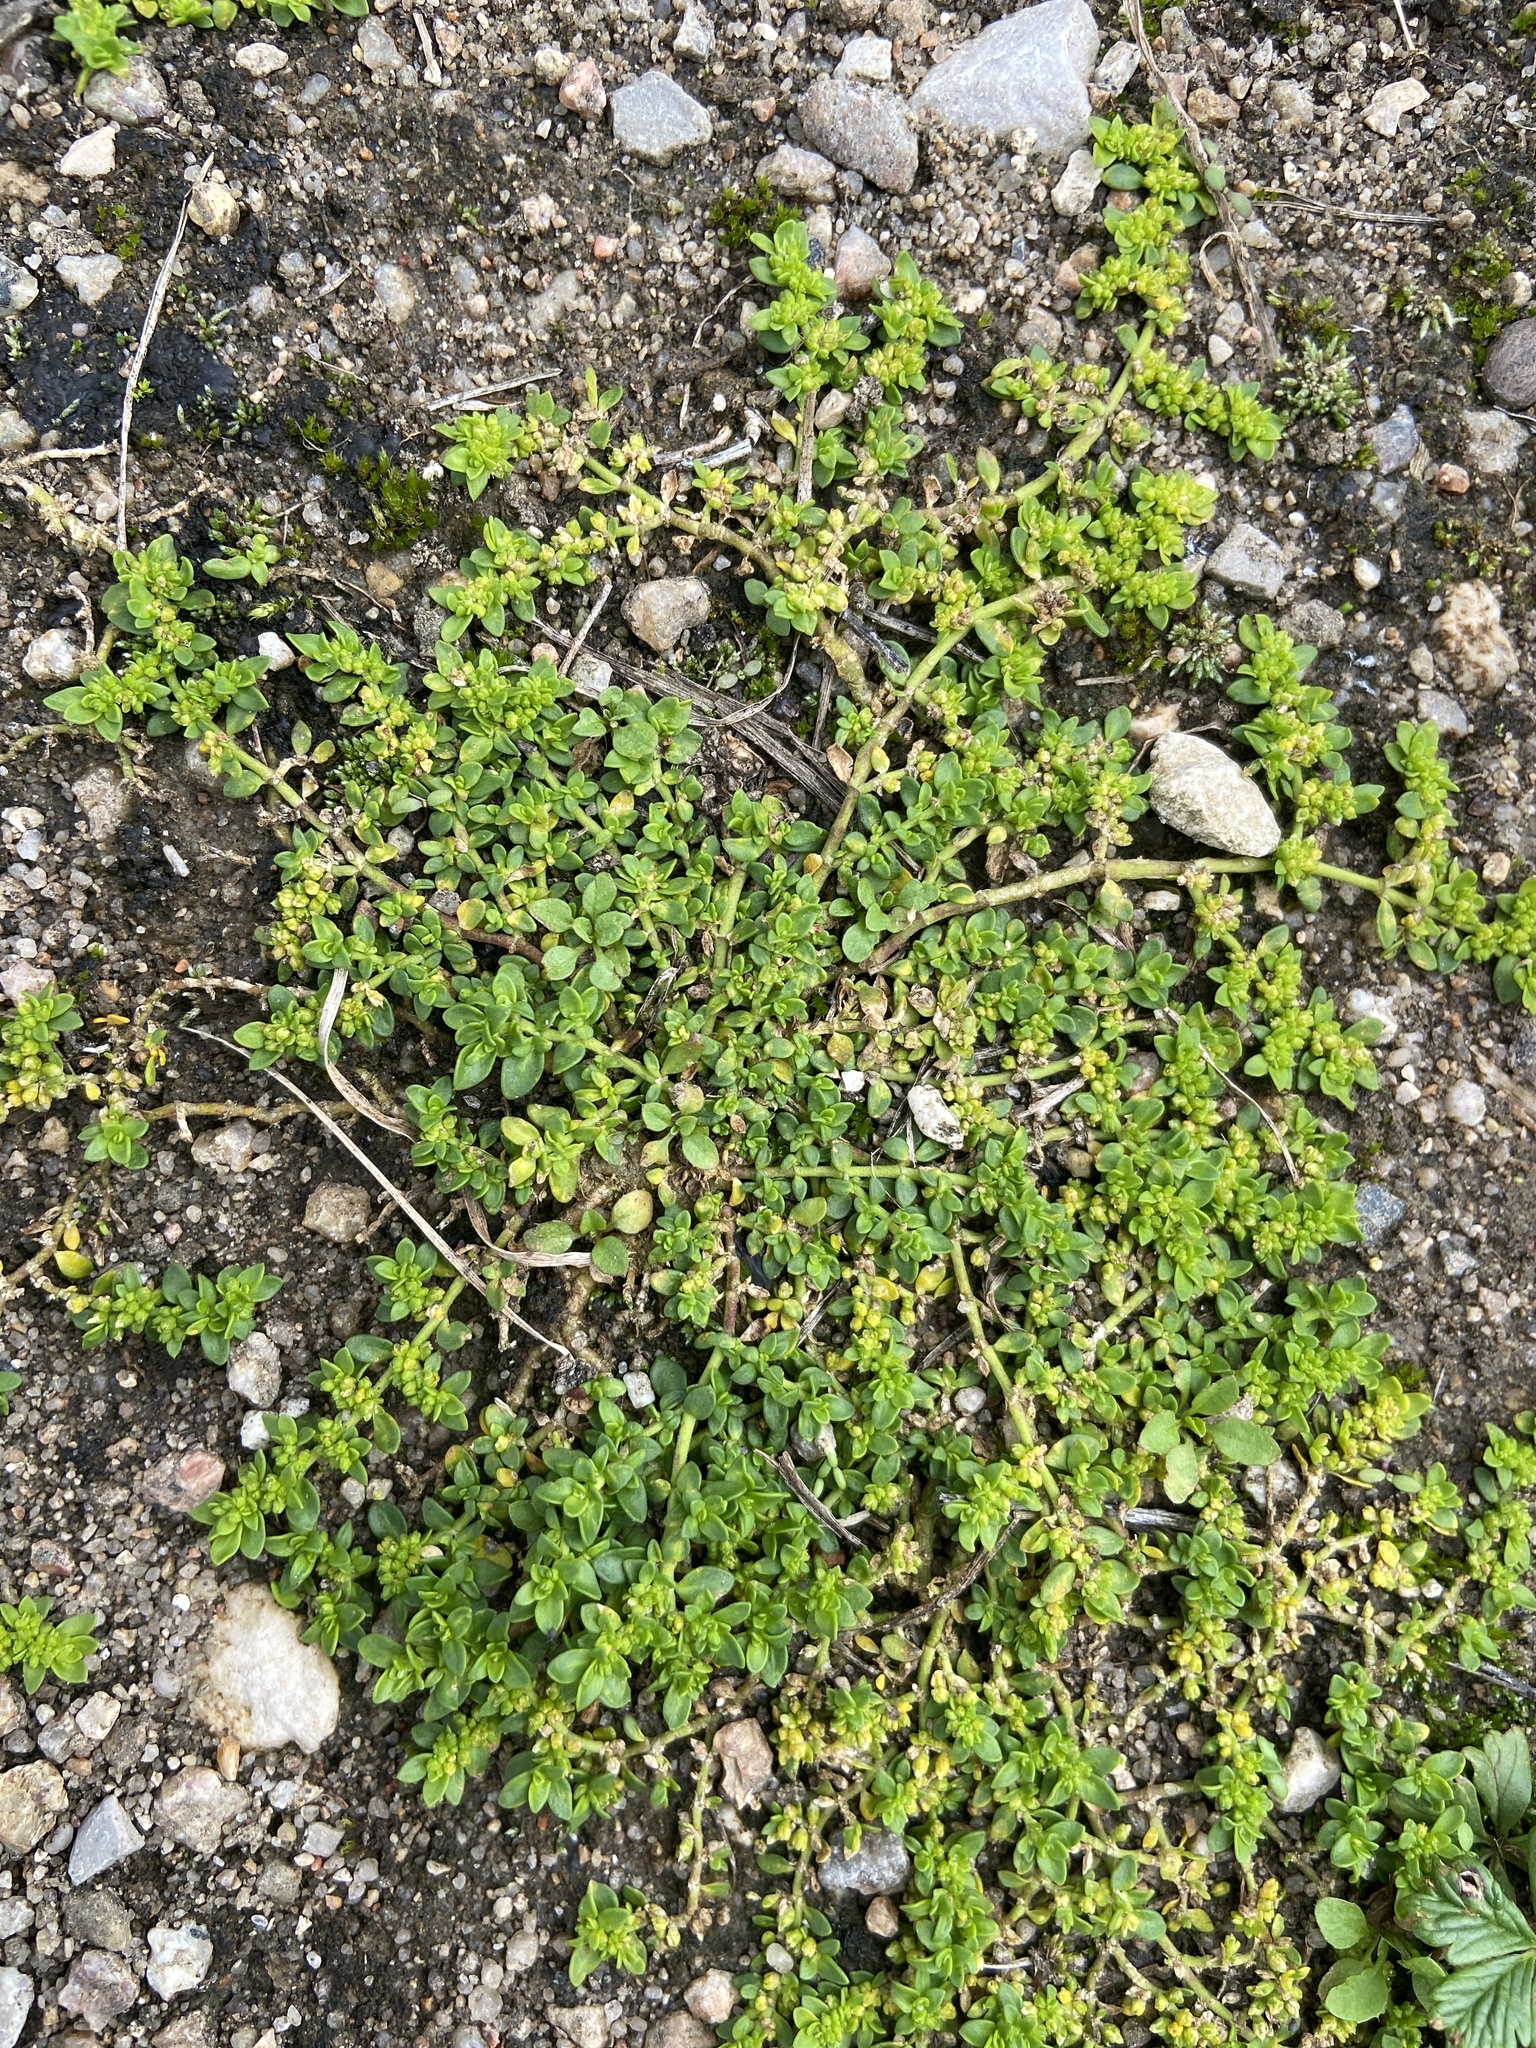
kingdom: Plantae
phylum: Tracheophyta
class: Magnoliopsida
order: Caryophyllales
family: Caryophyllaceae
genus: Herniaria
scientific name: Herniaria glabra
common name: Smooth rupturewort
